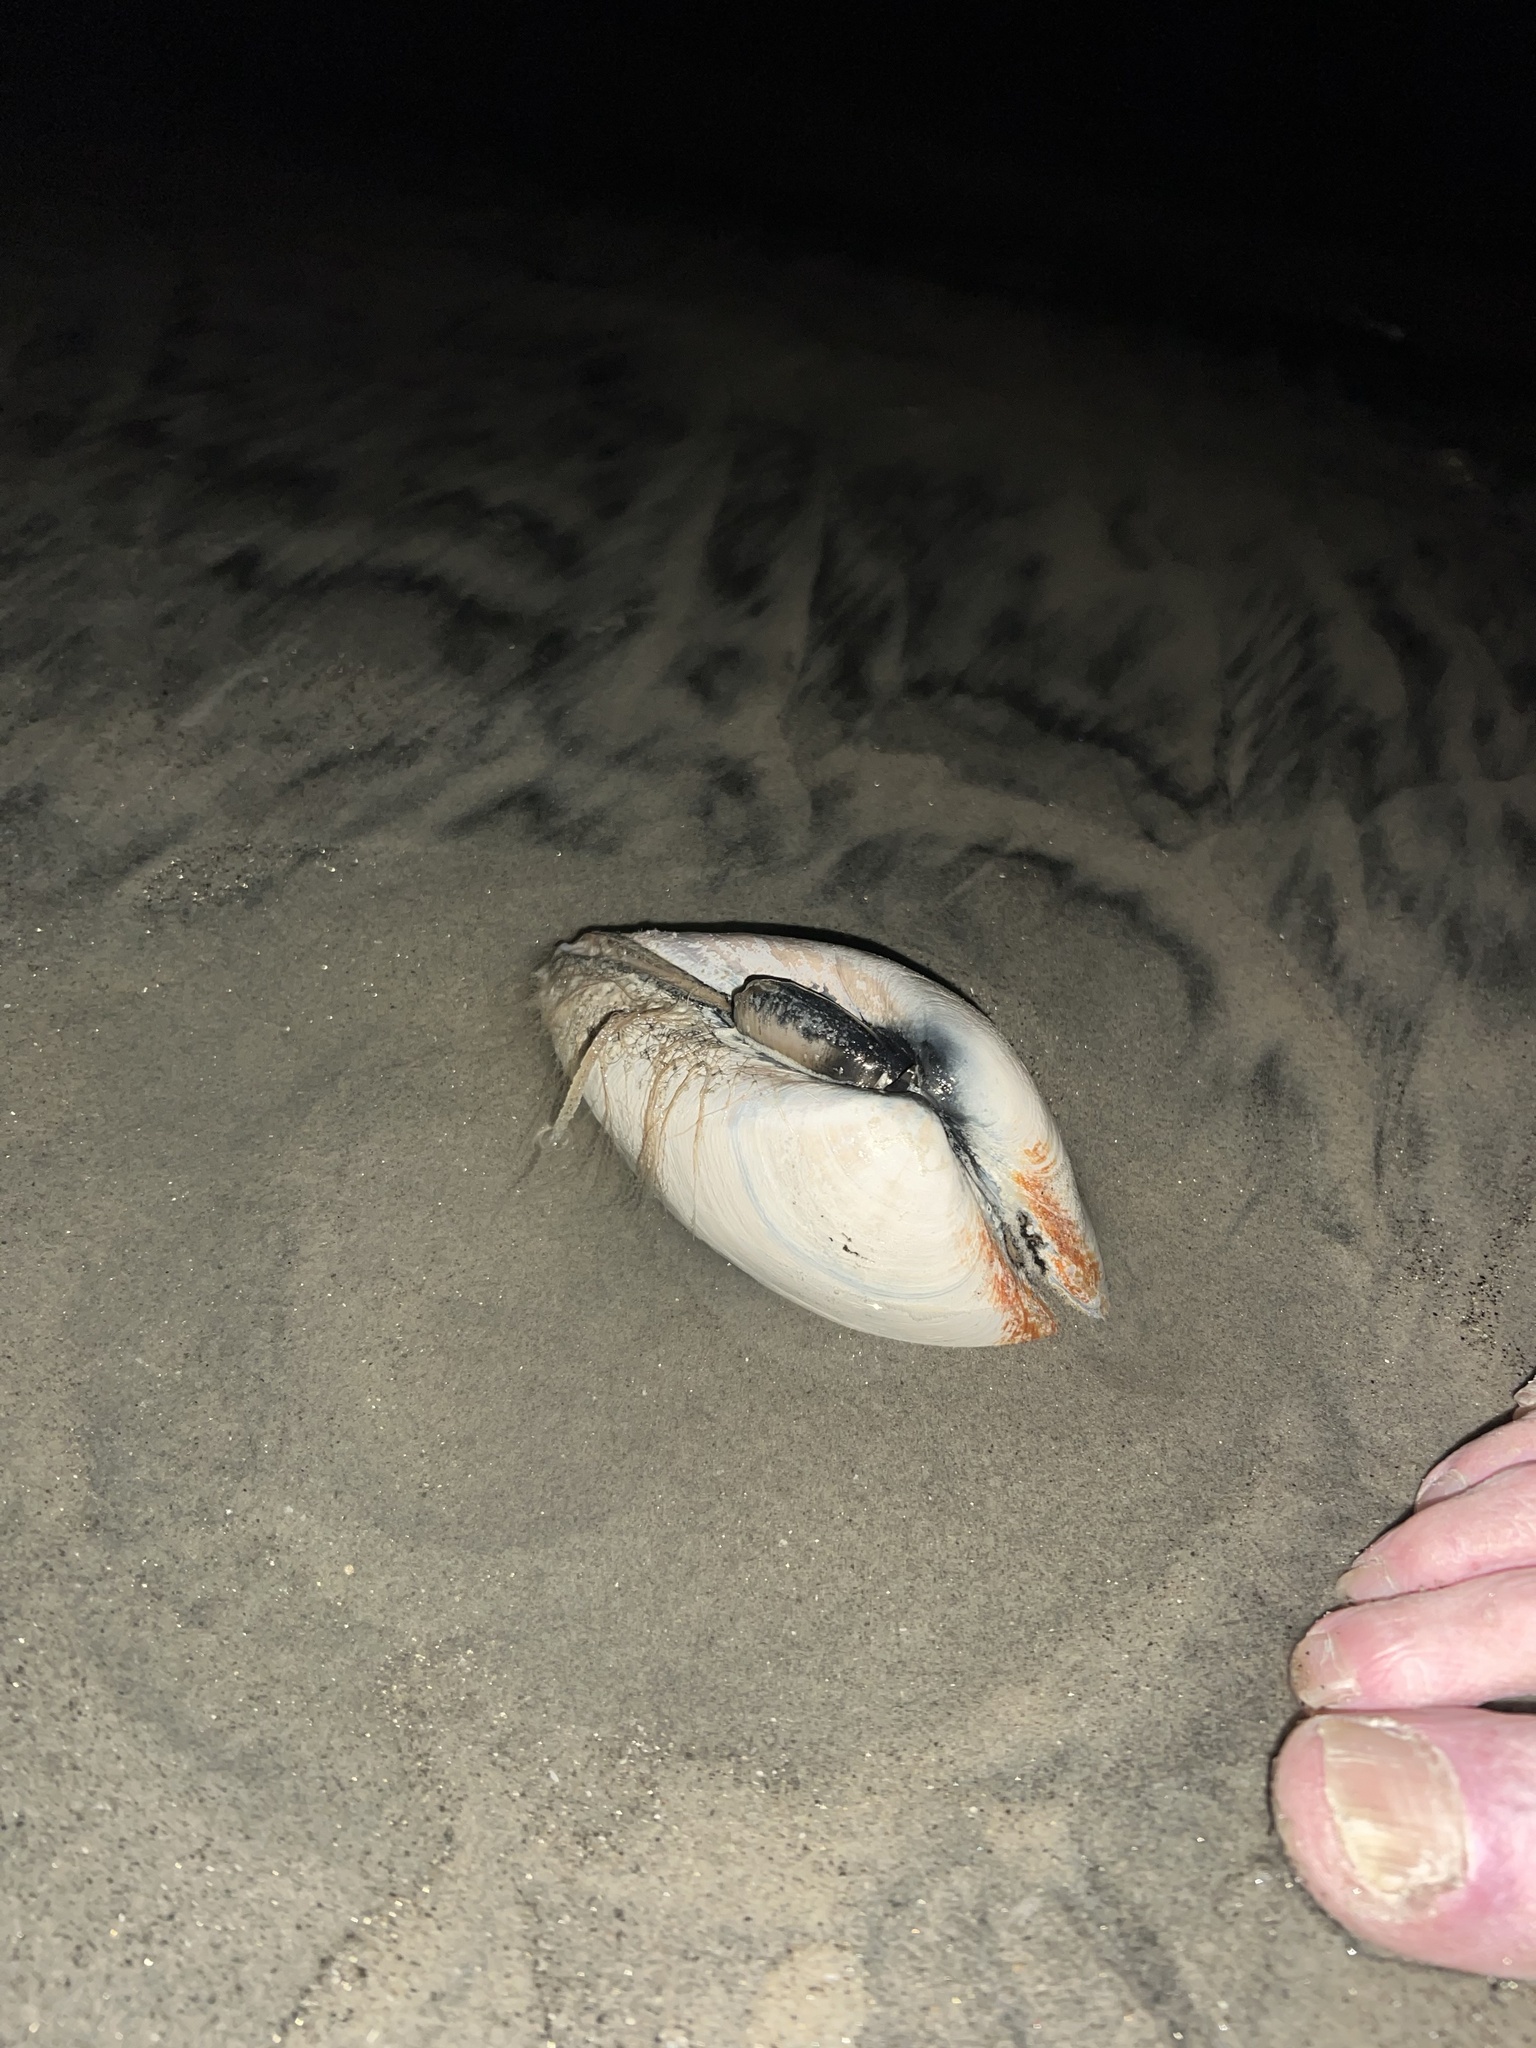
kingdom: Animalia
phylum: Mollusca
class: Bivalvia
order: Venerida
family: Veneridae
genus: Tivela
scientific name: Tivela stultorum
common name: Pismo clam
